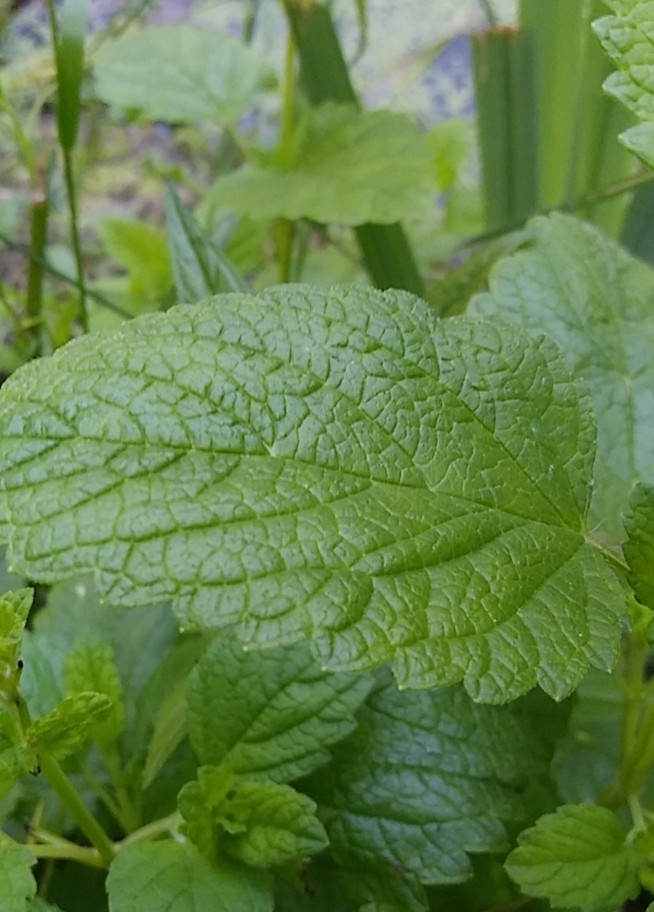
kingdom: Plantae
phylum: Tracheophyta
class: Magnoliopsida
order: Lamiales
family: Lamiaceae
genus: Melissa
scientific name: Melissa officinalis
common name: Balm
